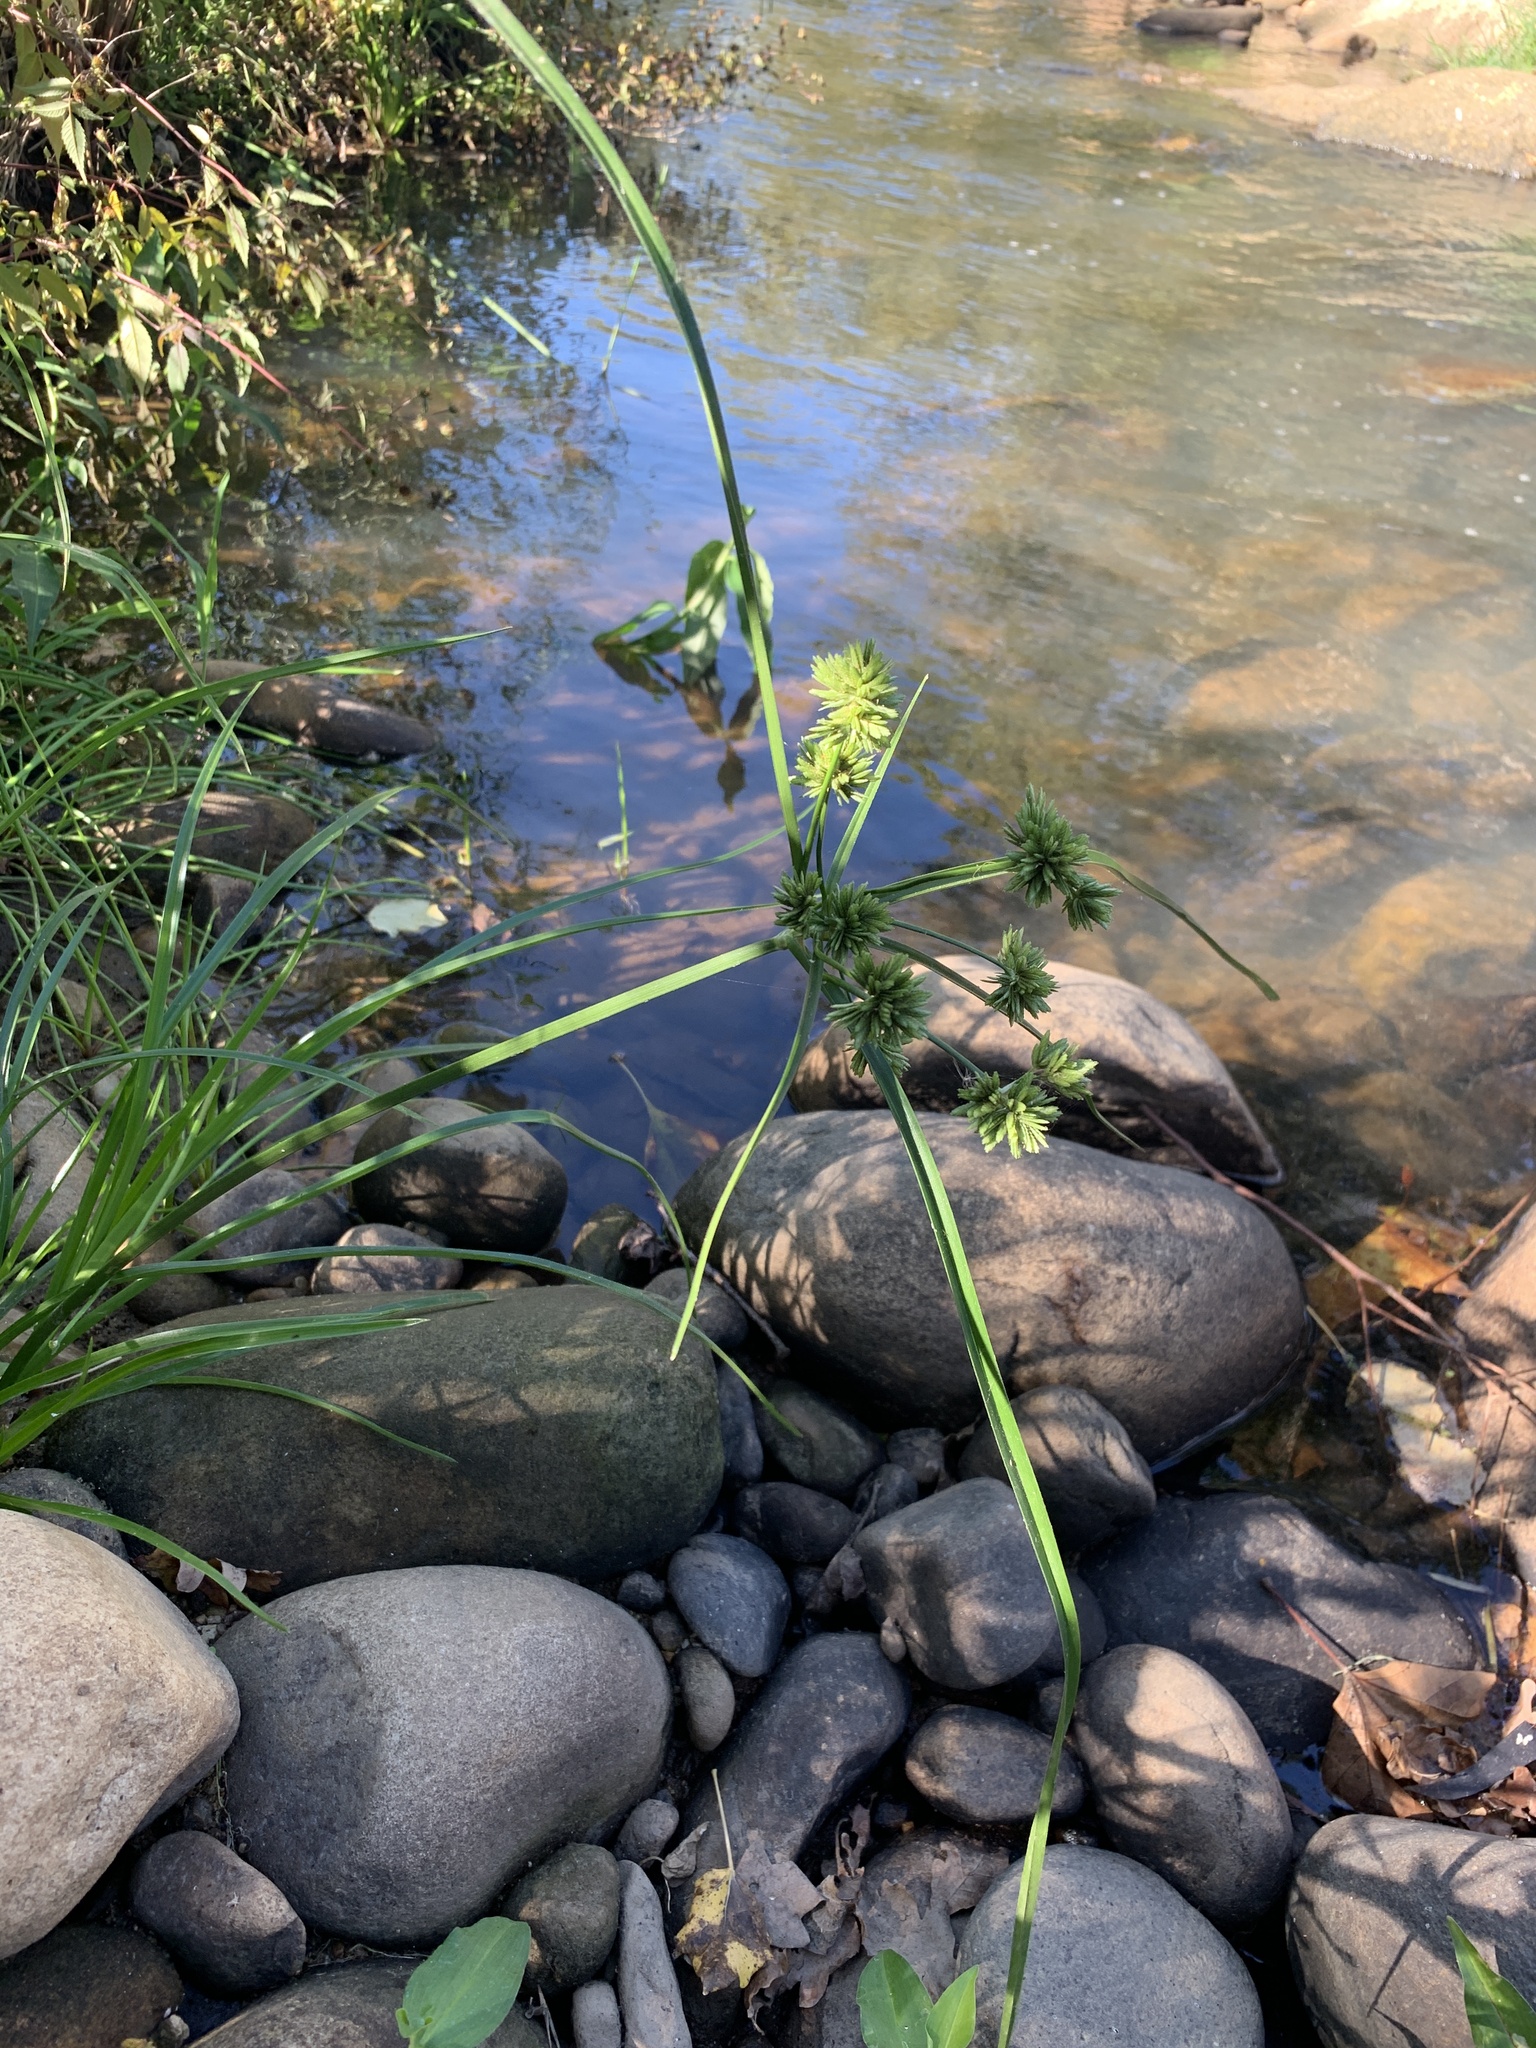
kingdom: Plantae
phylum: Tracheophyta
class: Liliopsida
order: Poales
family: Cyperaceae
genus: Cyperus
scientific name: Cyperus eragrostis
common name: Tall flatsedge
